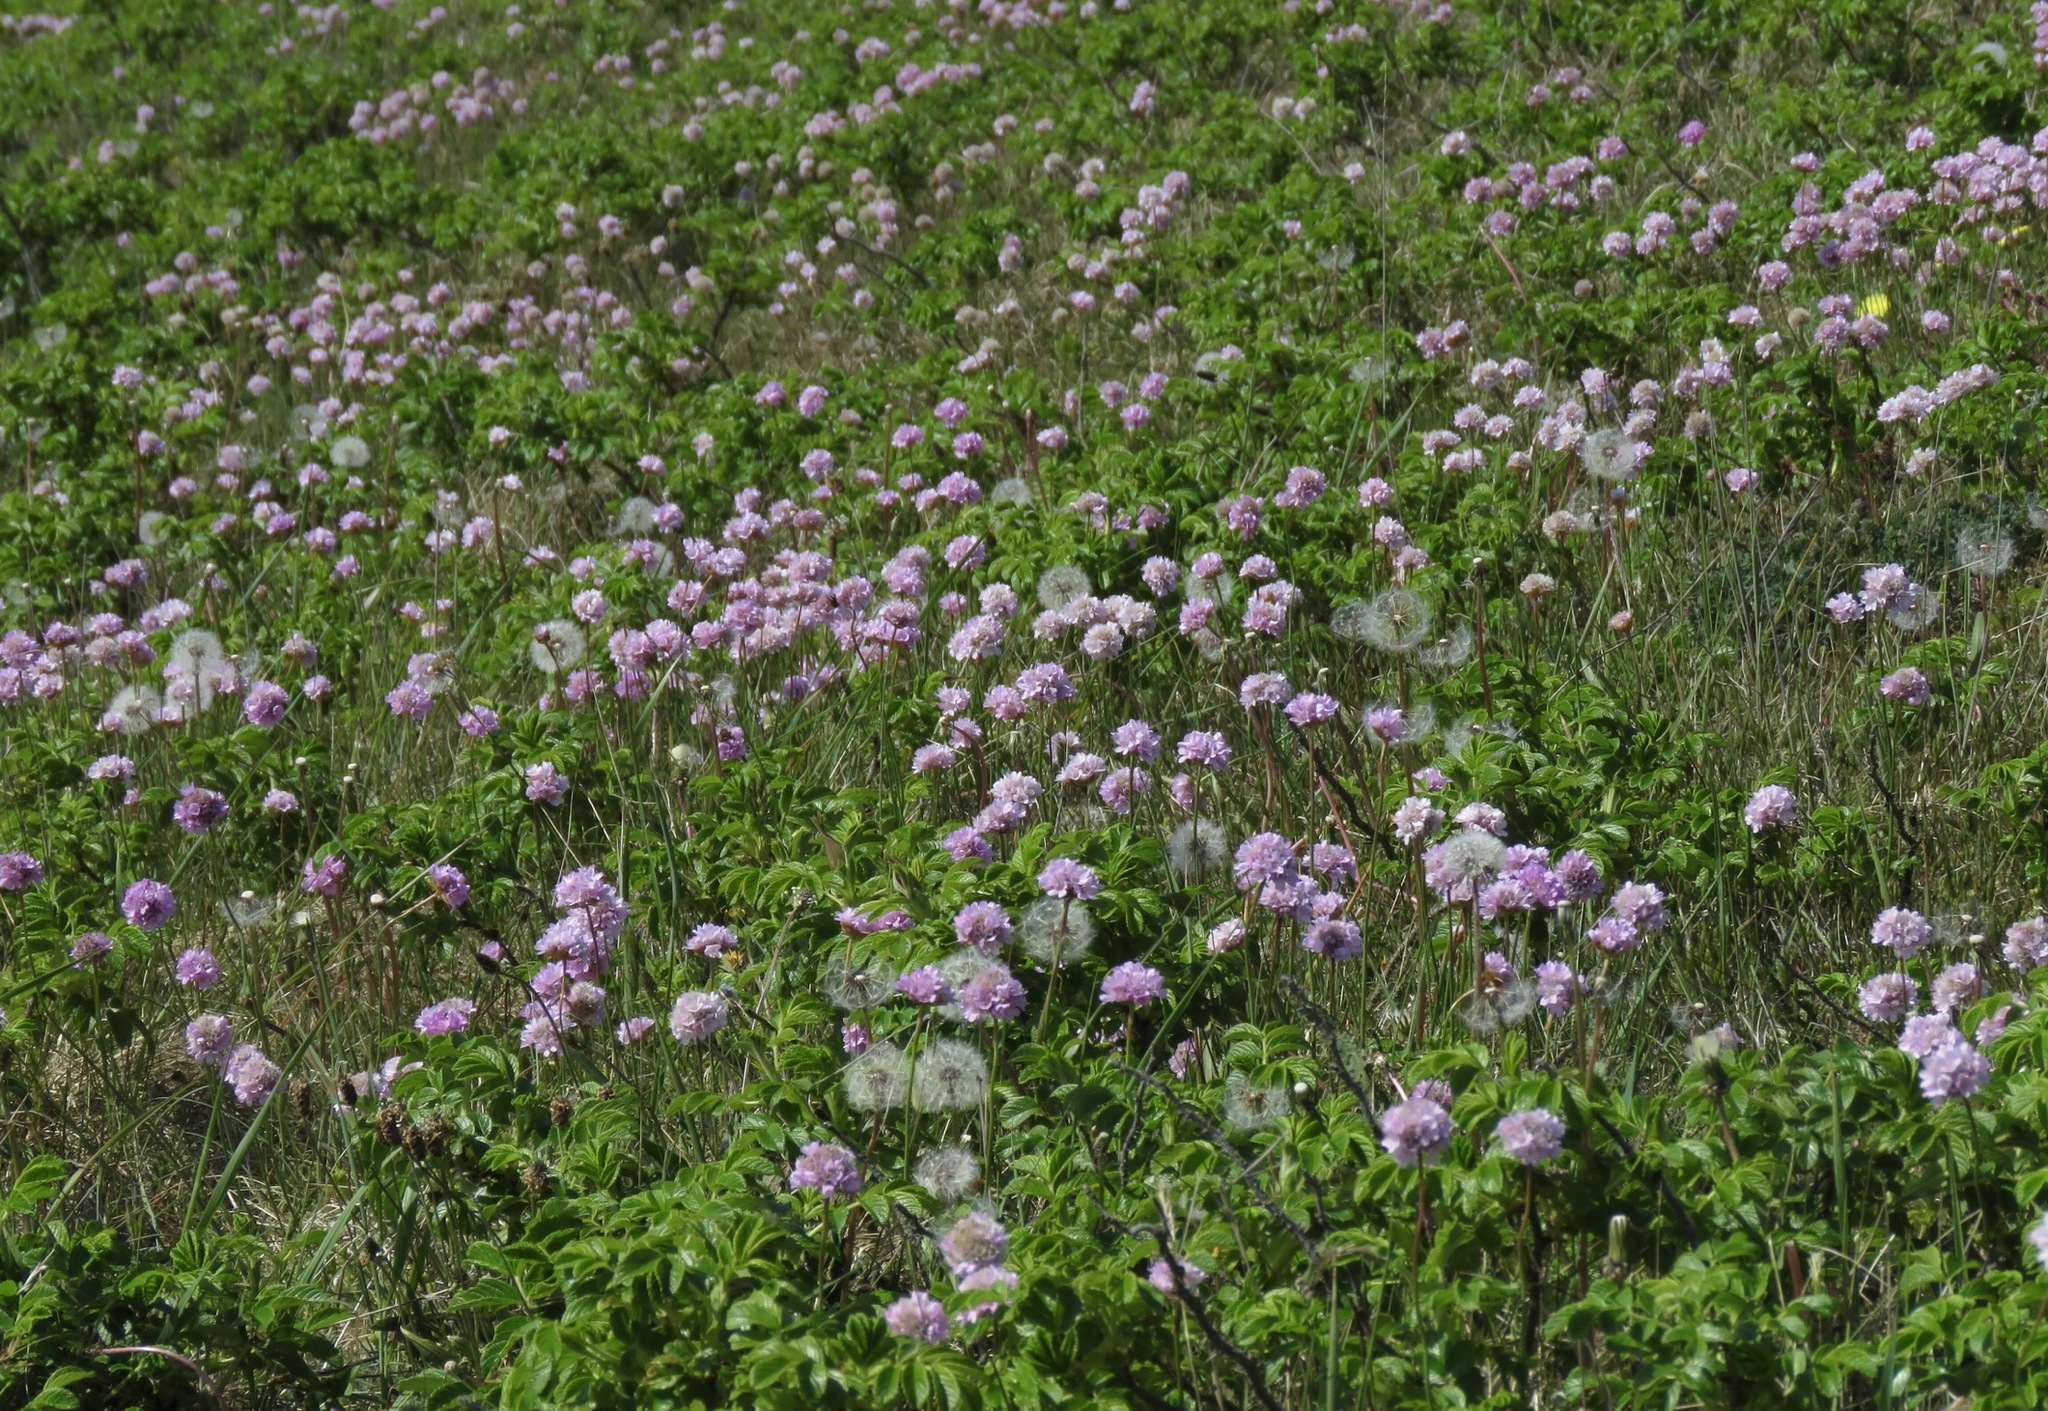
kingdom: Plantae
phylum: Tracheophyta
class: Magnoliopsida
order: Caryophyllales
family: Plumbaginaceae
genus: Armeria
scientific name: Armeria maritima
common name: Thrift
